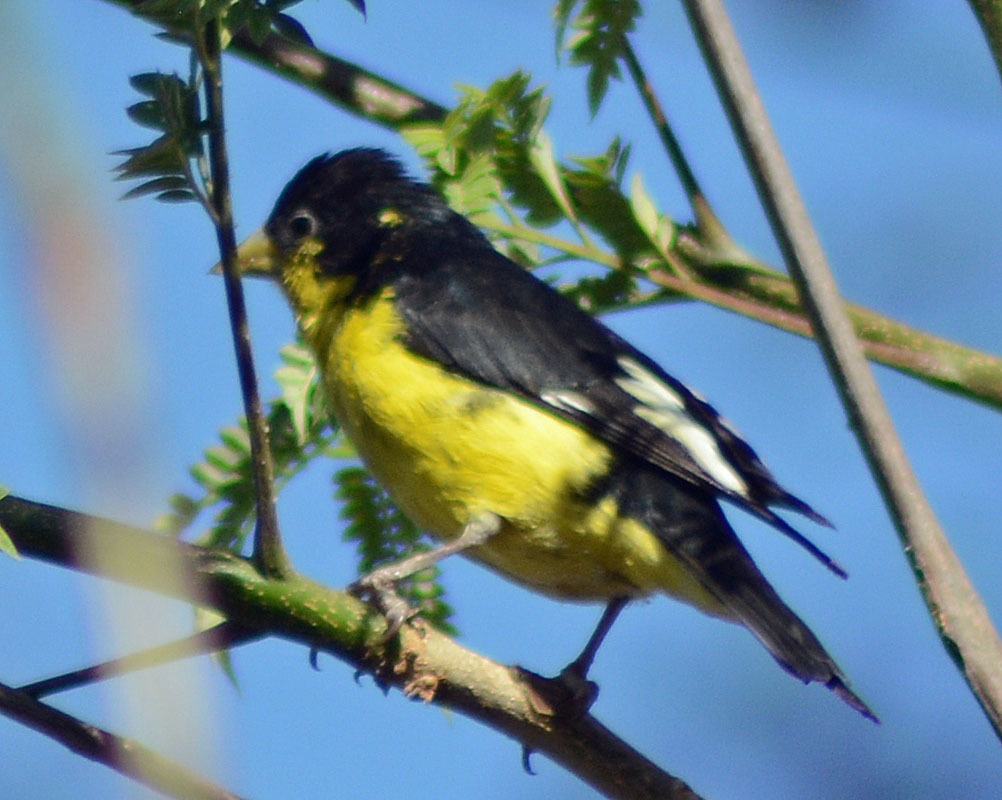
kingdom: Animalia
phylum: Chordata
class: Aves
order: Passeriformes
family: Fringillidae
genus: Spinus
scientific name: Spinus psaltria
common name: Lesser goldfinch
